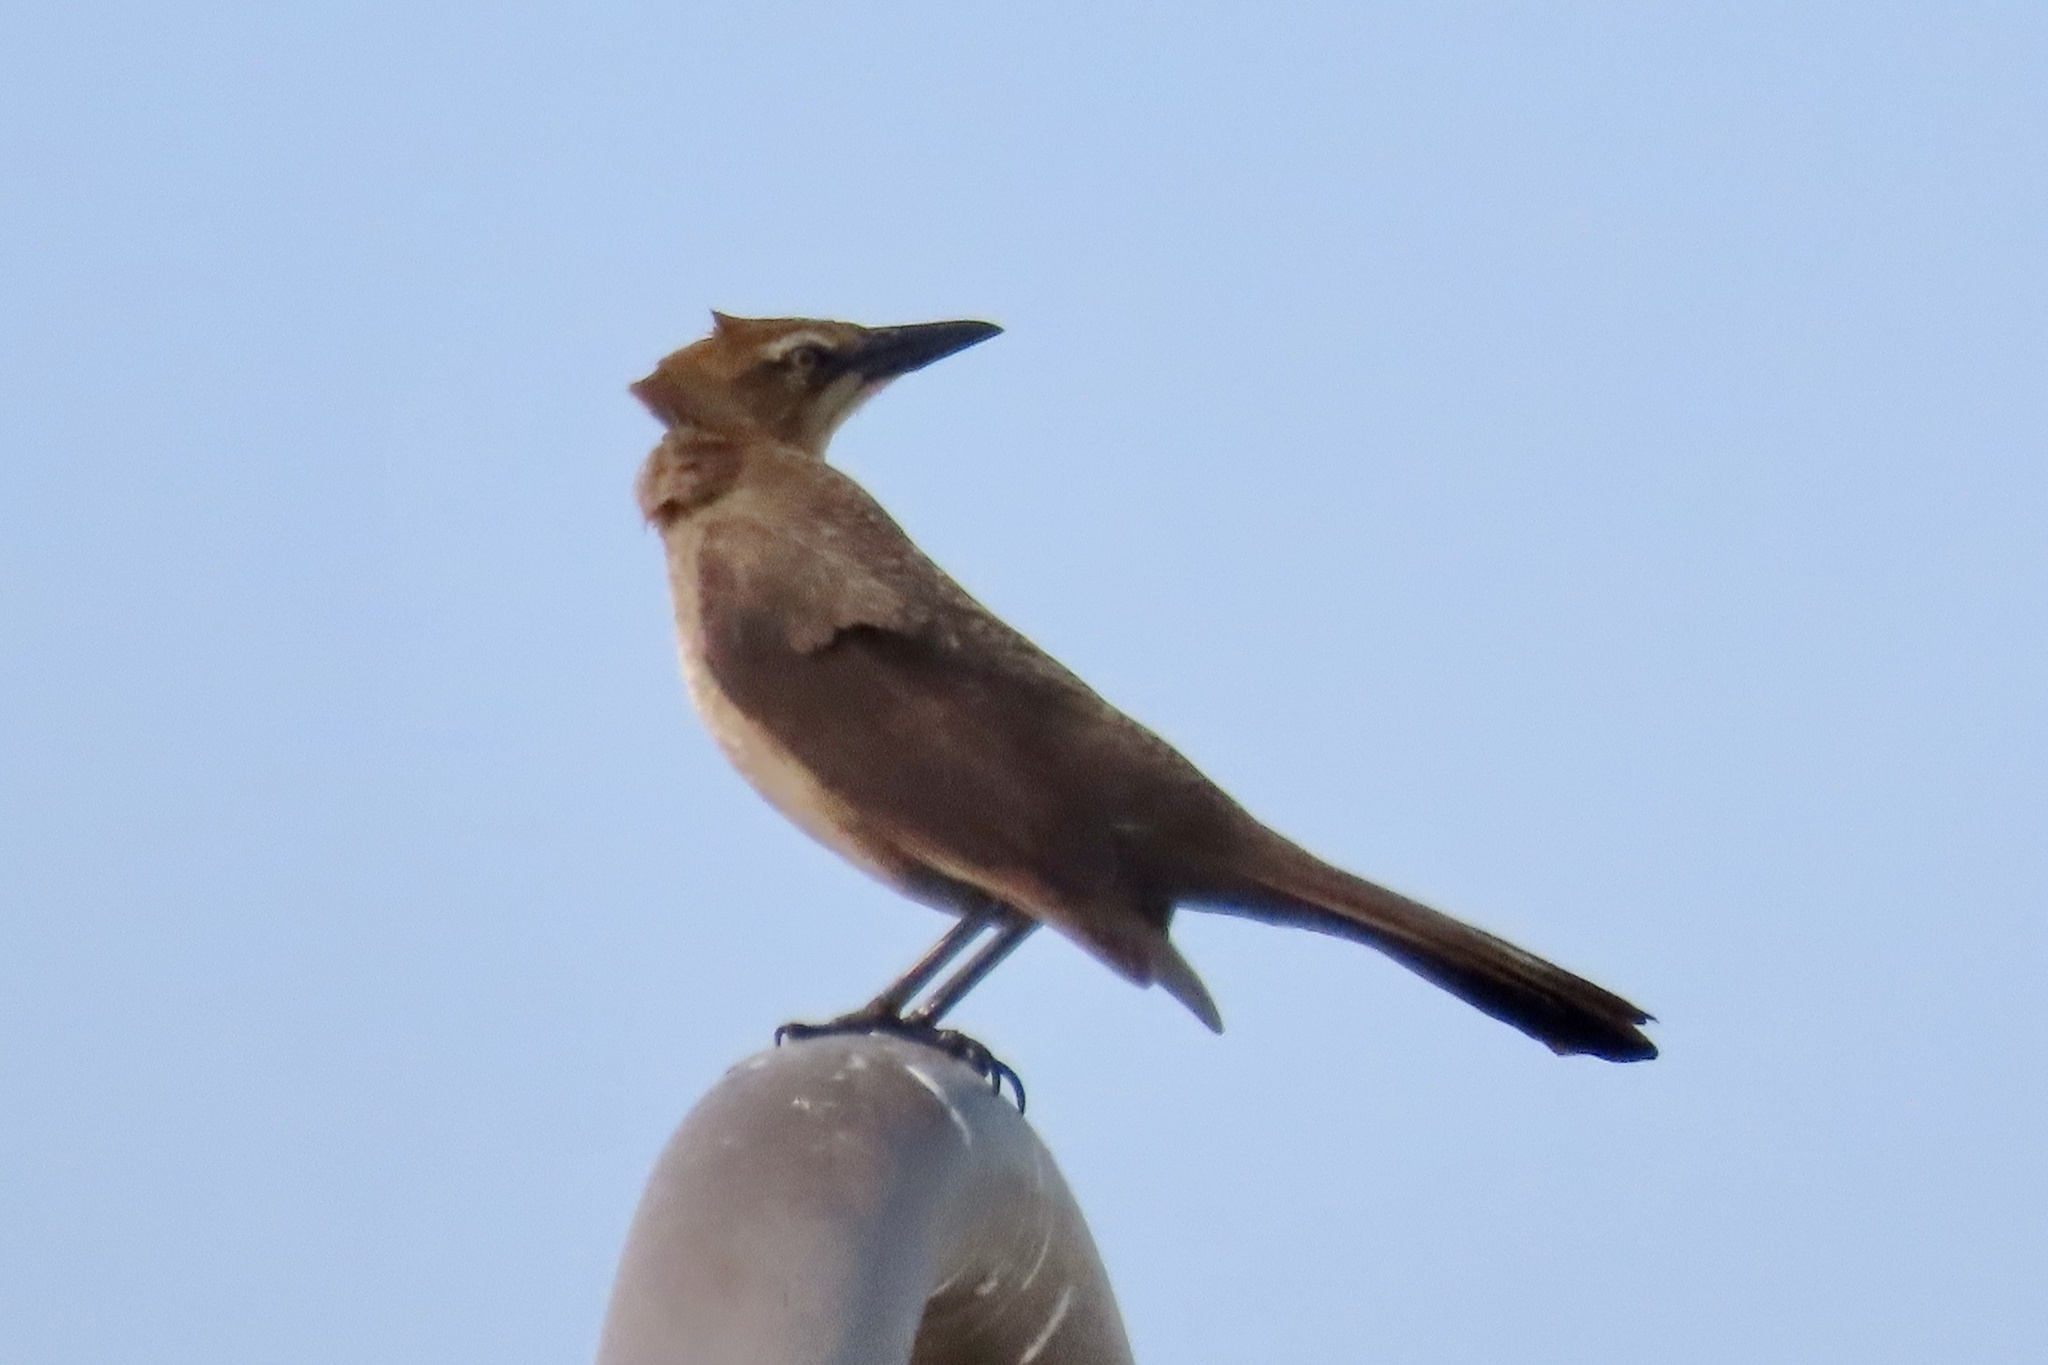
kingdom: Animalia
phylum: Chordata
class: Aves
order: Passeriformes
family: Icteridae
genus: Quiscalus
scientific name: Quiscalus mexicanus
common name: Great-tailed grackle
